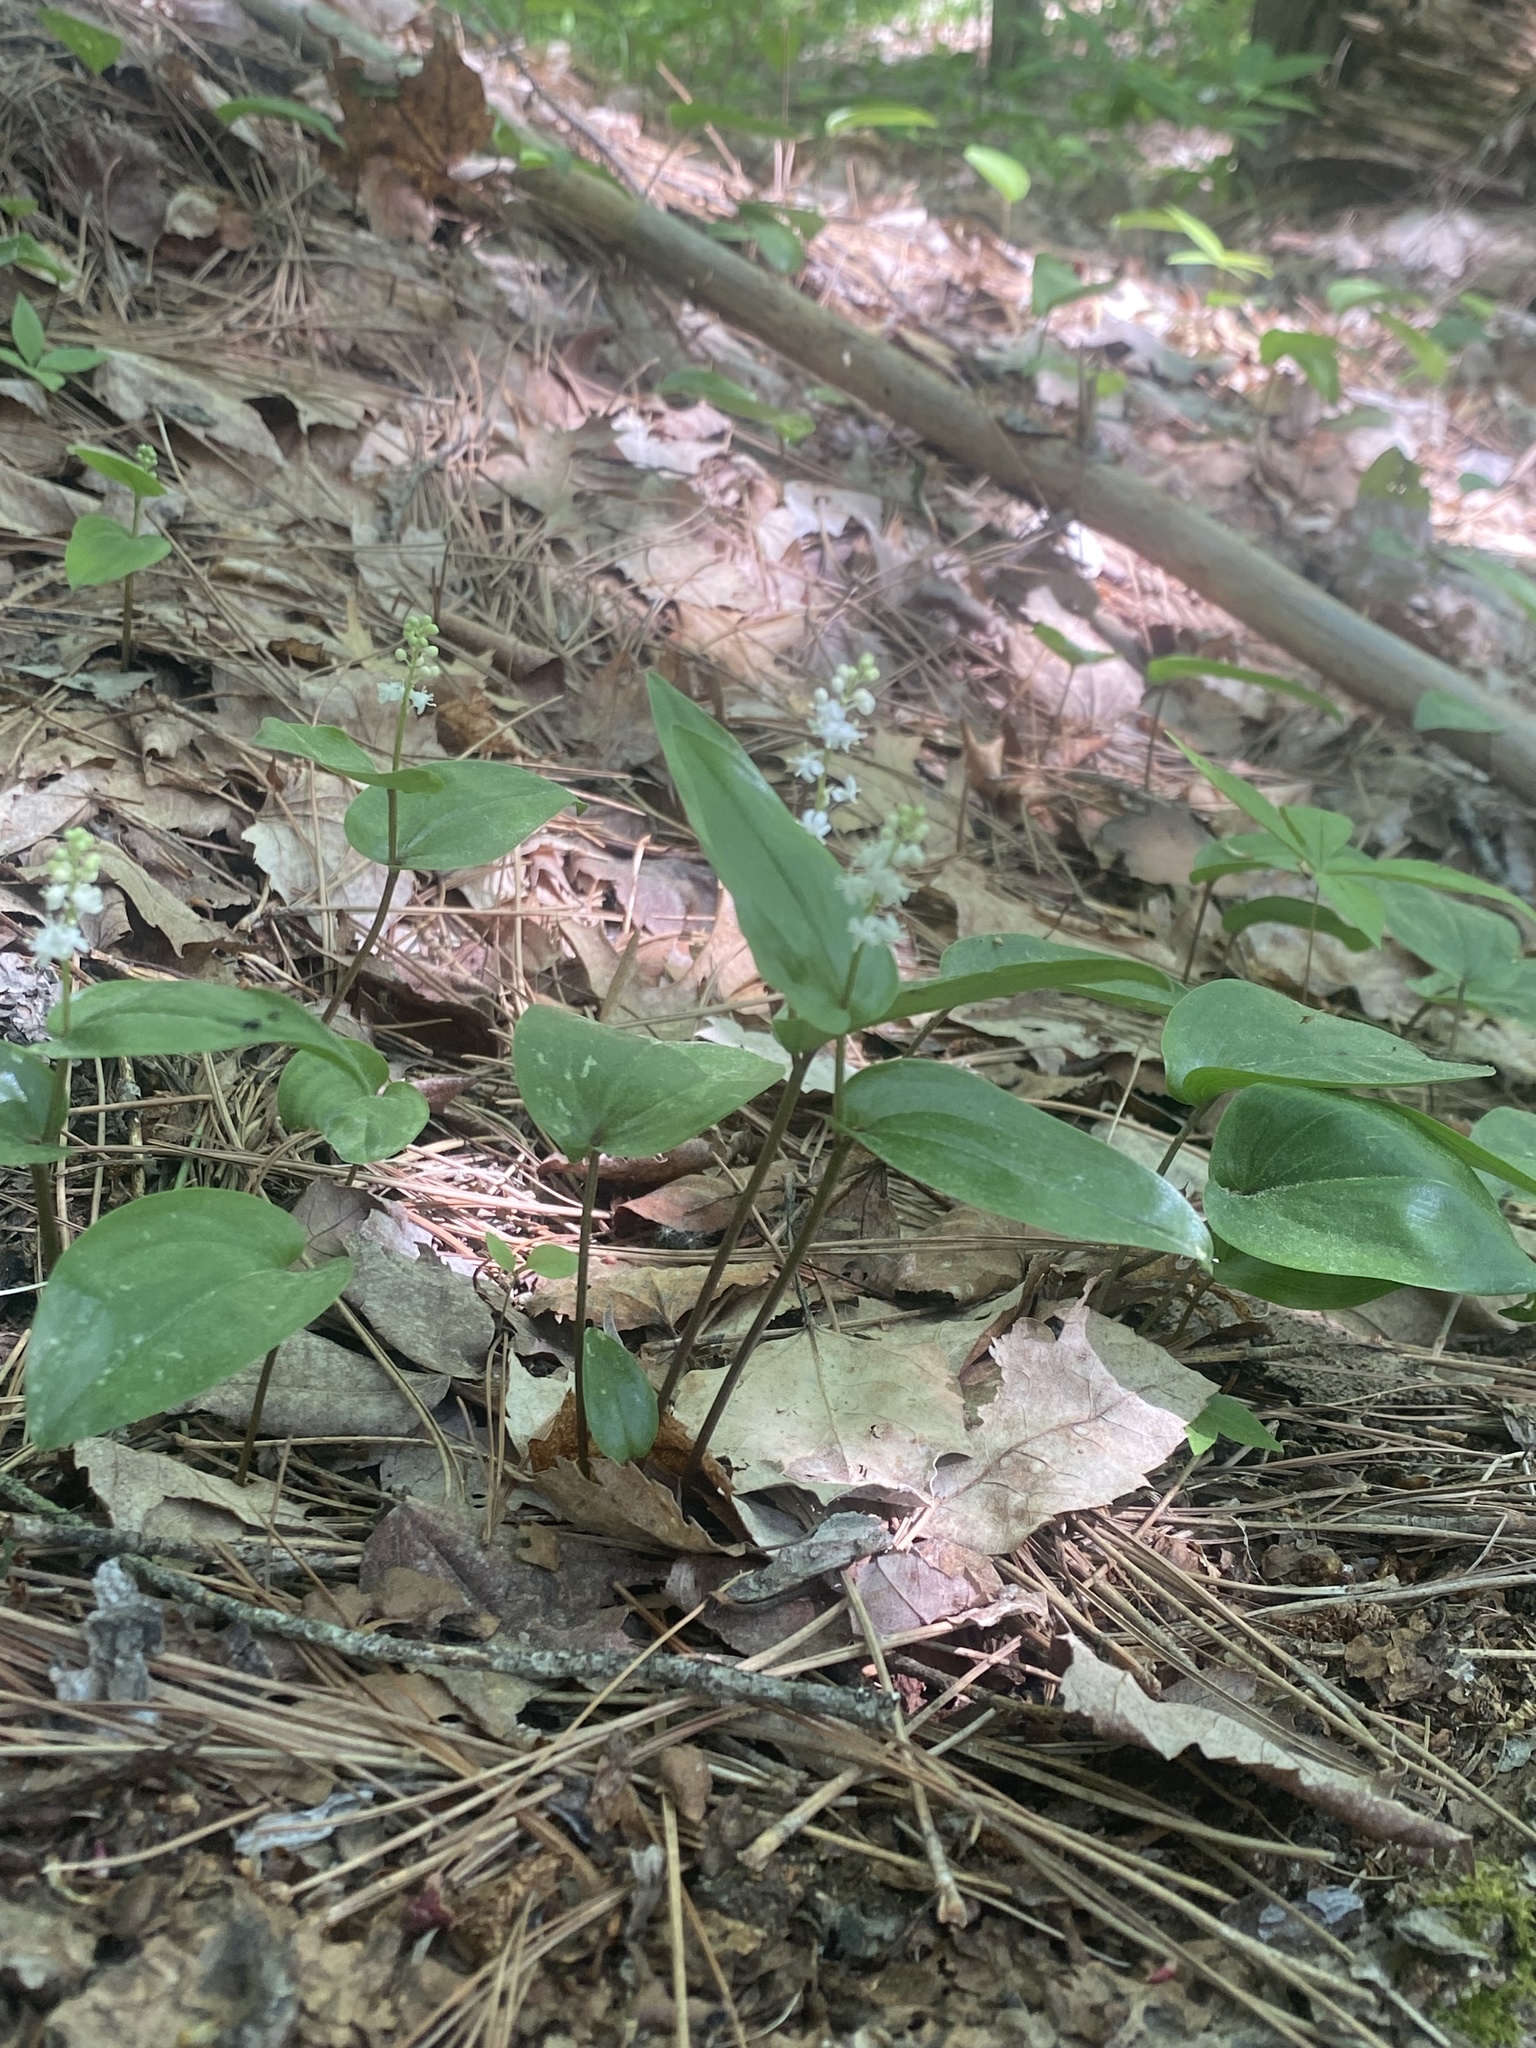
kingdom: Plantae
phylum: Tracheophyta
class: Liliopsida
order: Asparagales
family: Asparagaceae
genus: Maianthemum
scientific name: Maianthemum canadense
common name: False lily-of-the-valley
